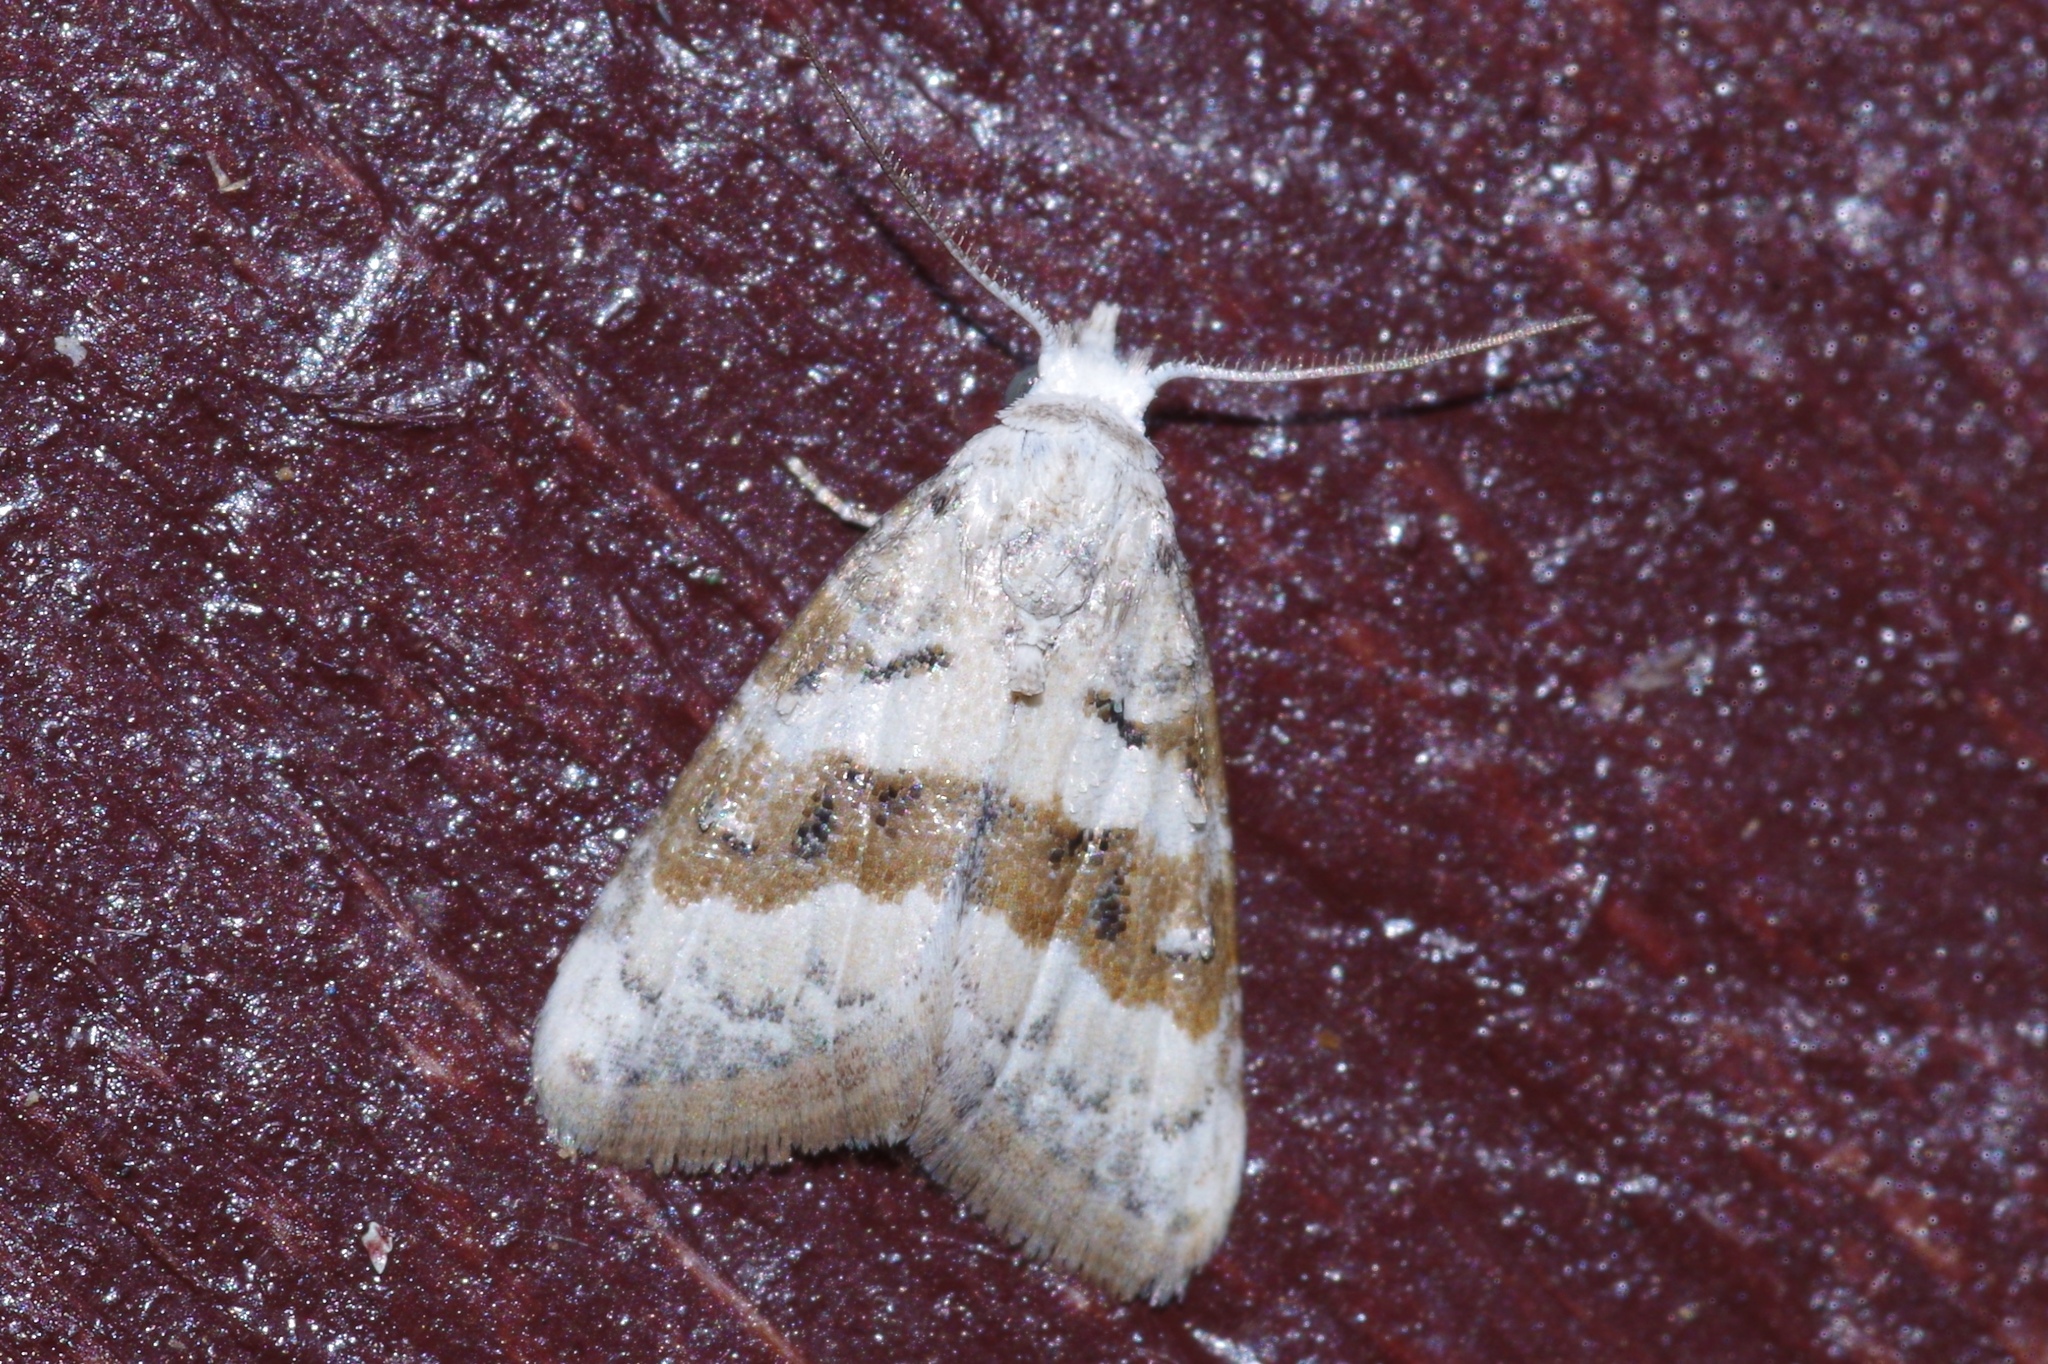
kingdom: Animalia
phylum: Arthropoda
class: Insecta
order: Lepidoptera
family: Nolidae
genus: Nola
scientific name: Nola taeniata
